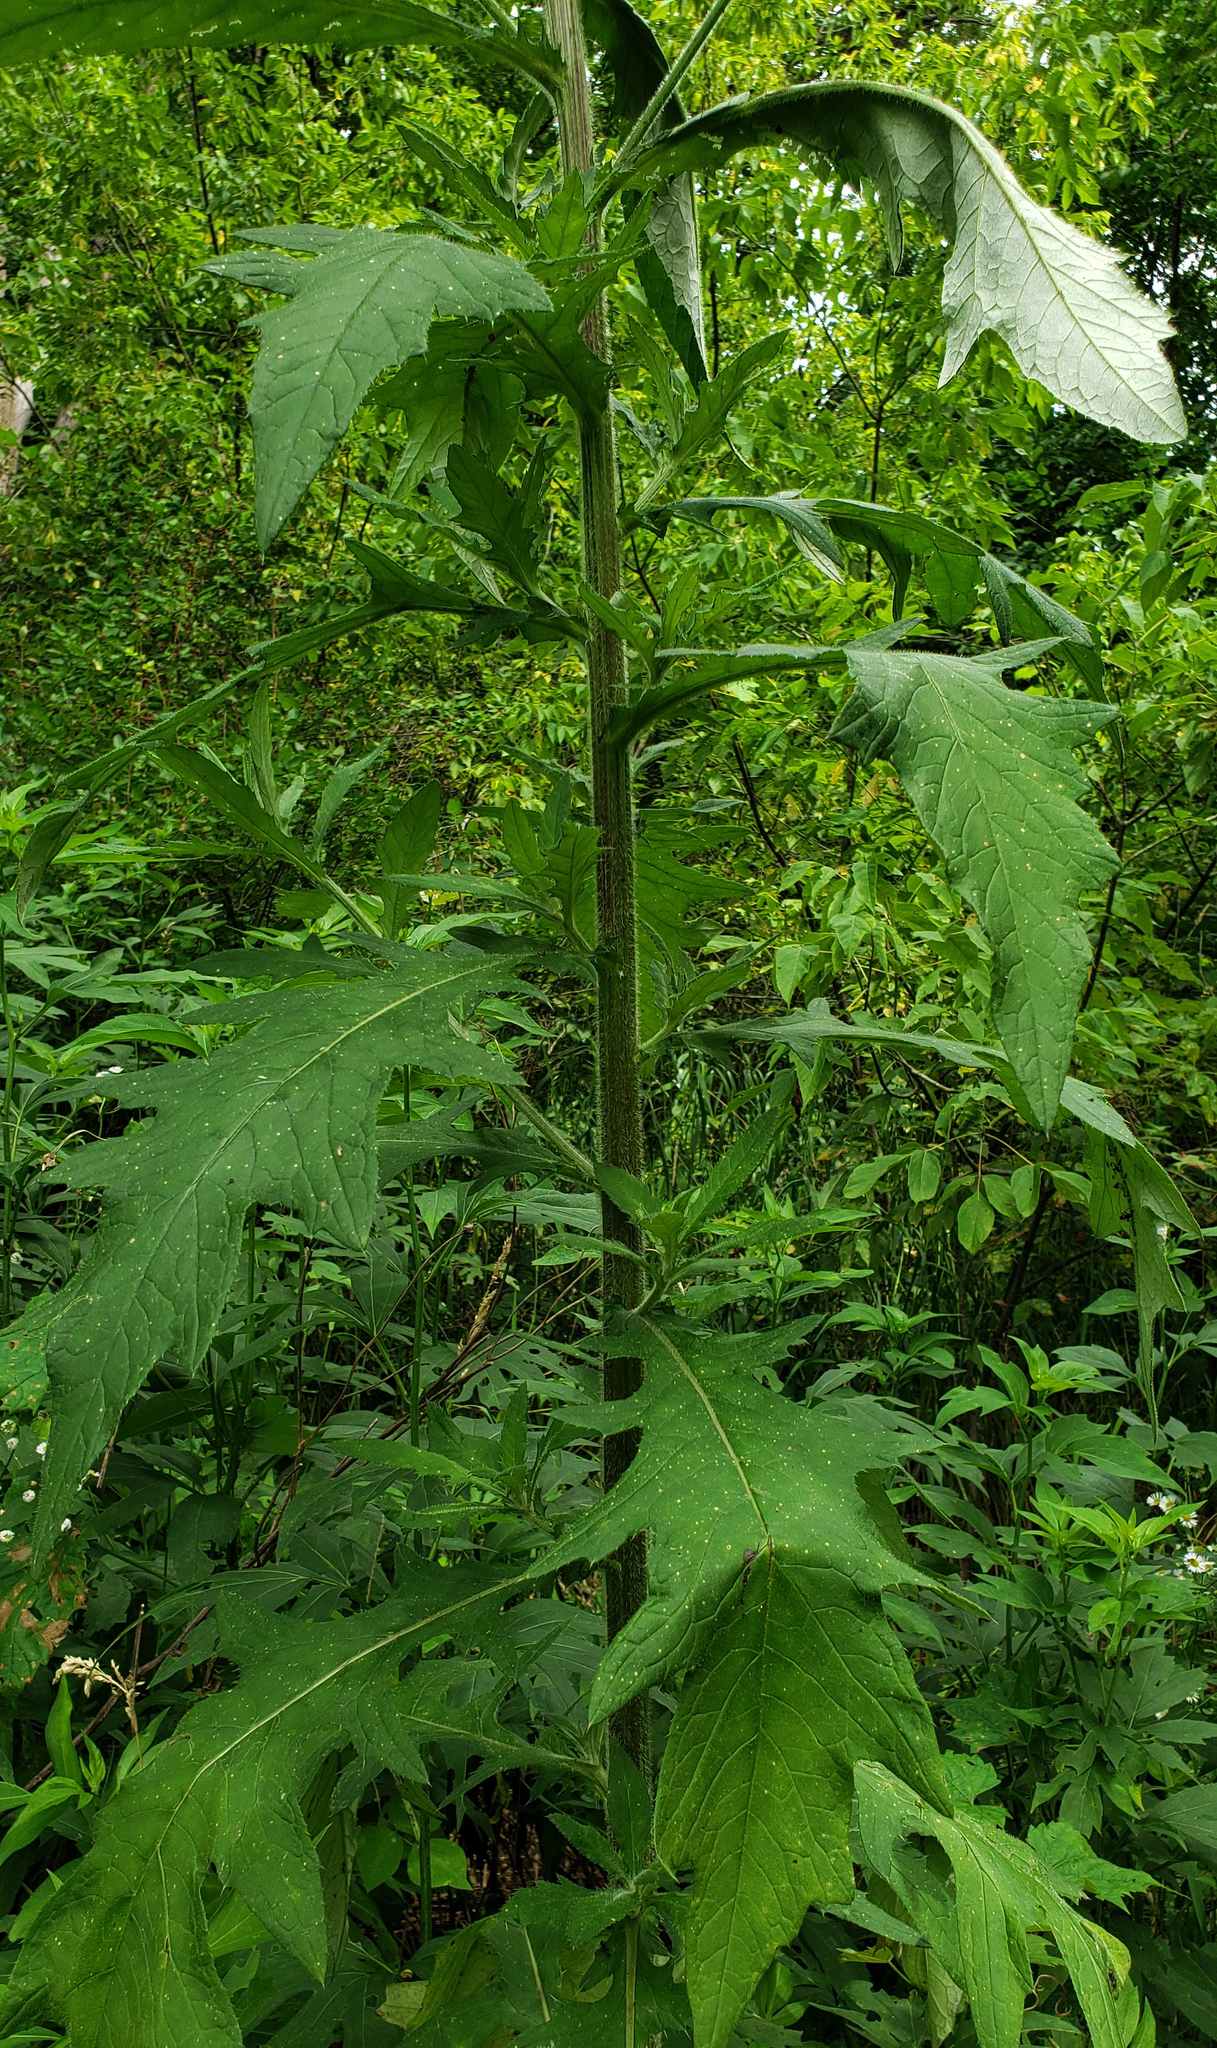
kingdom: Plantae
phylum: Tracheophyta
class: Magnoliopsida
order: Asterales
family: Asteraceae
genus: Cirsium
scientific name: Cirsium altissimum
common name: Roadside thistle
